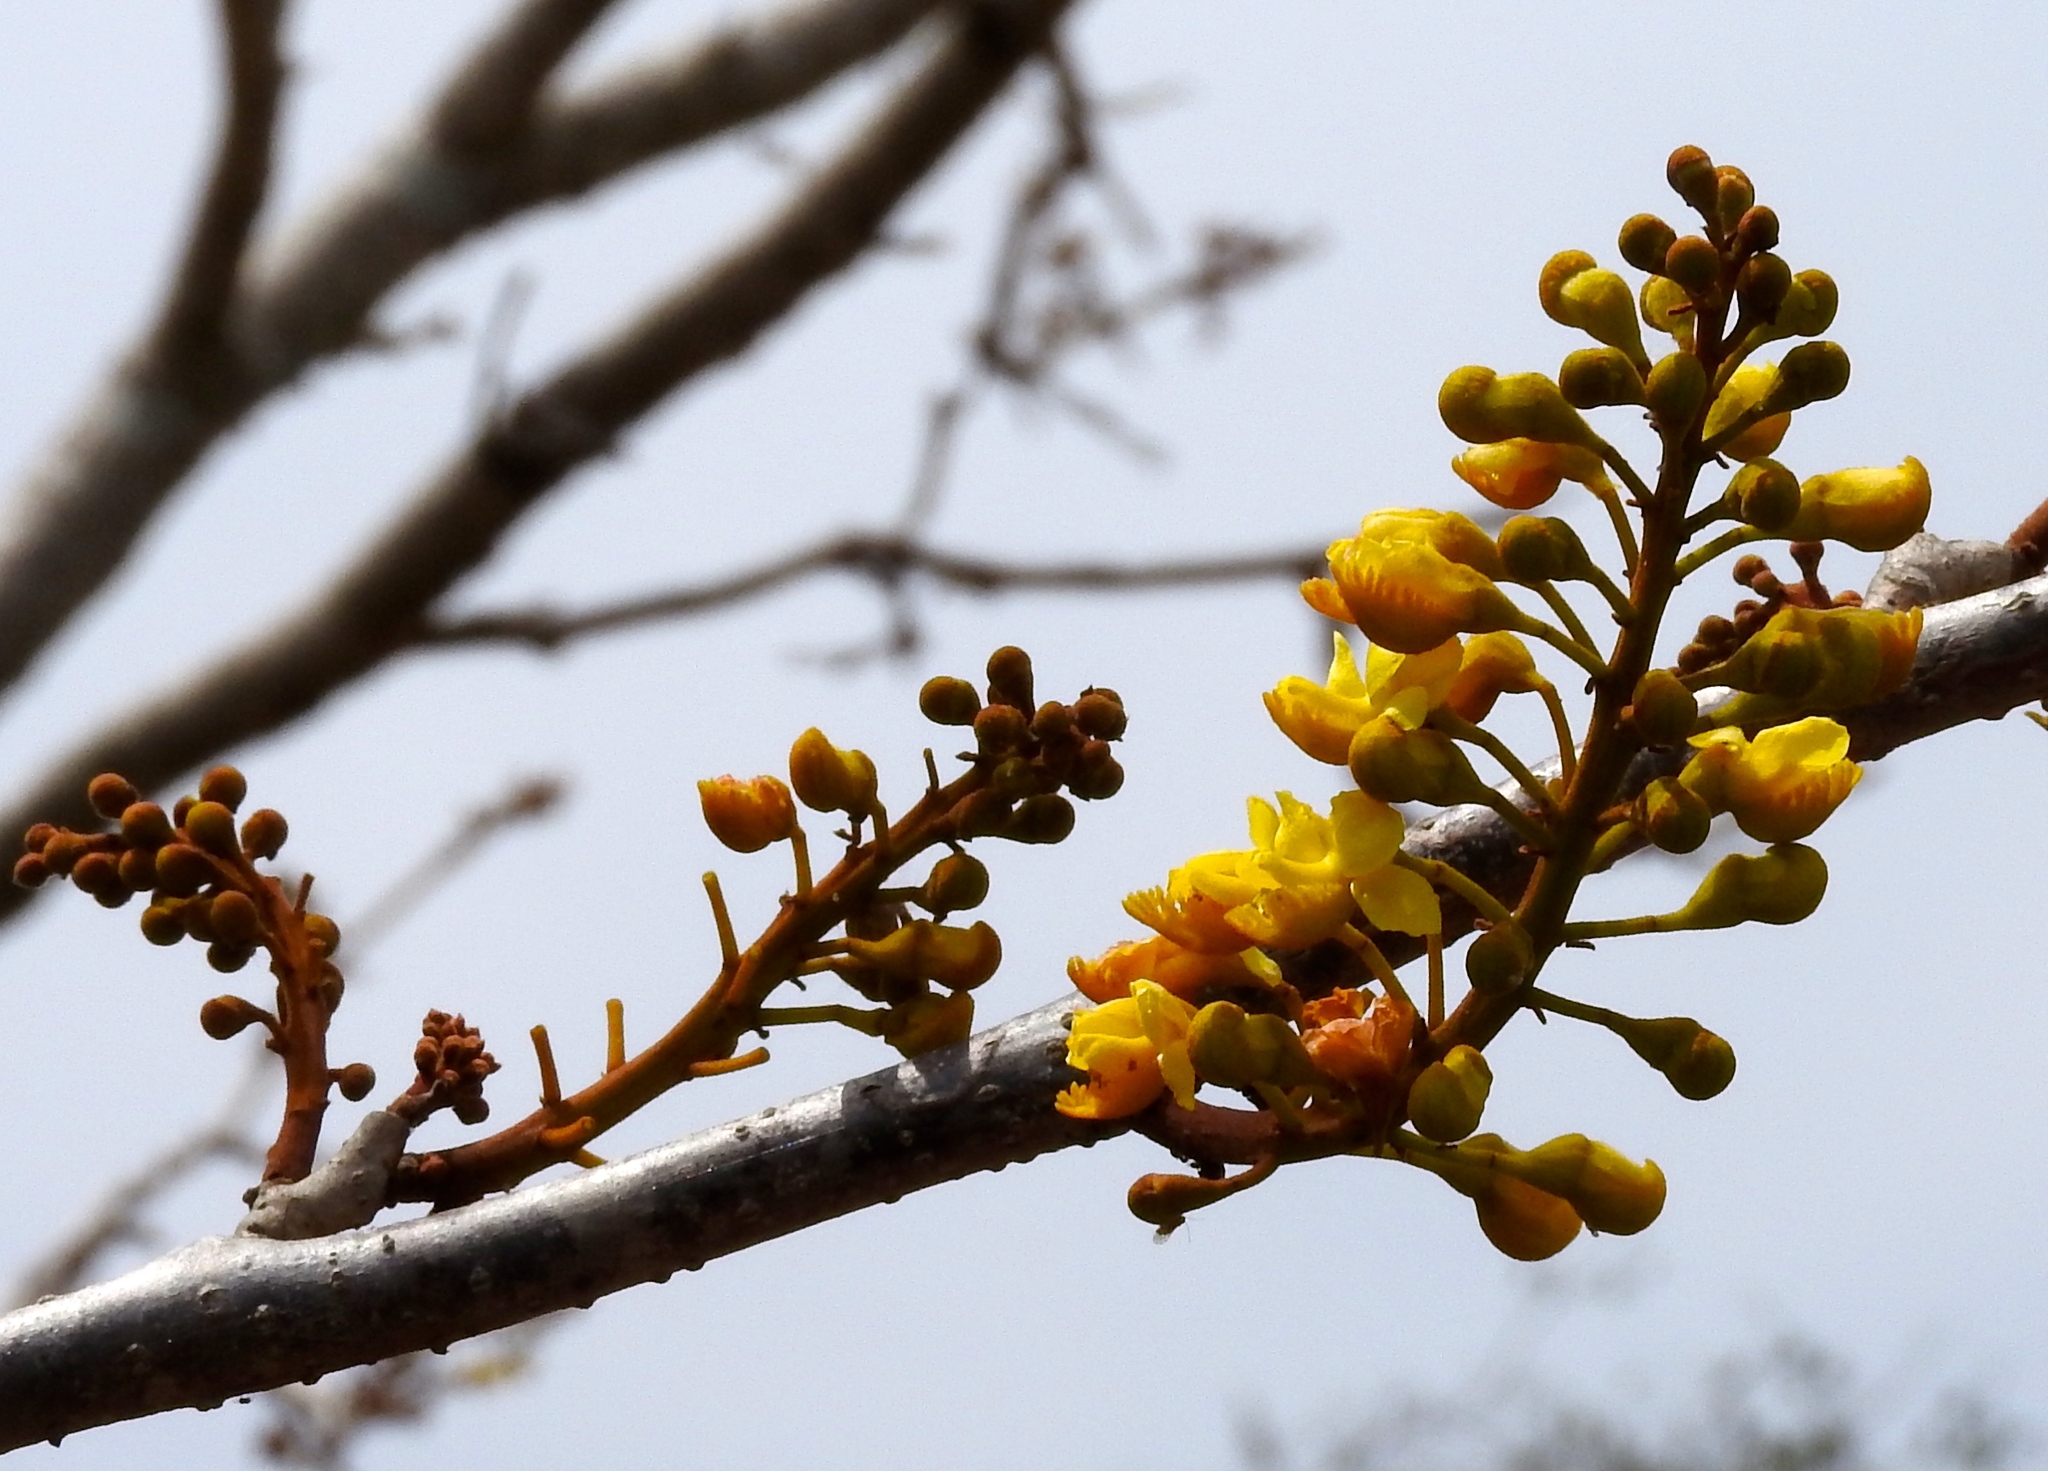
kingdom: Plantae
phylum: Tracheophyta
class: Magnoliopsida
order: Fabales
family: Fabaceae
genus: Coulteria
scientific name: Coulteria platyloba
